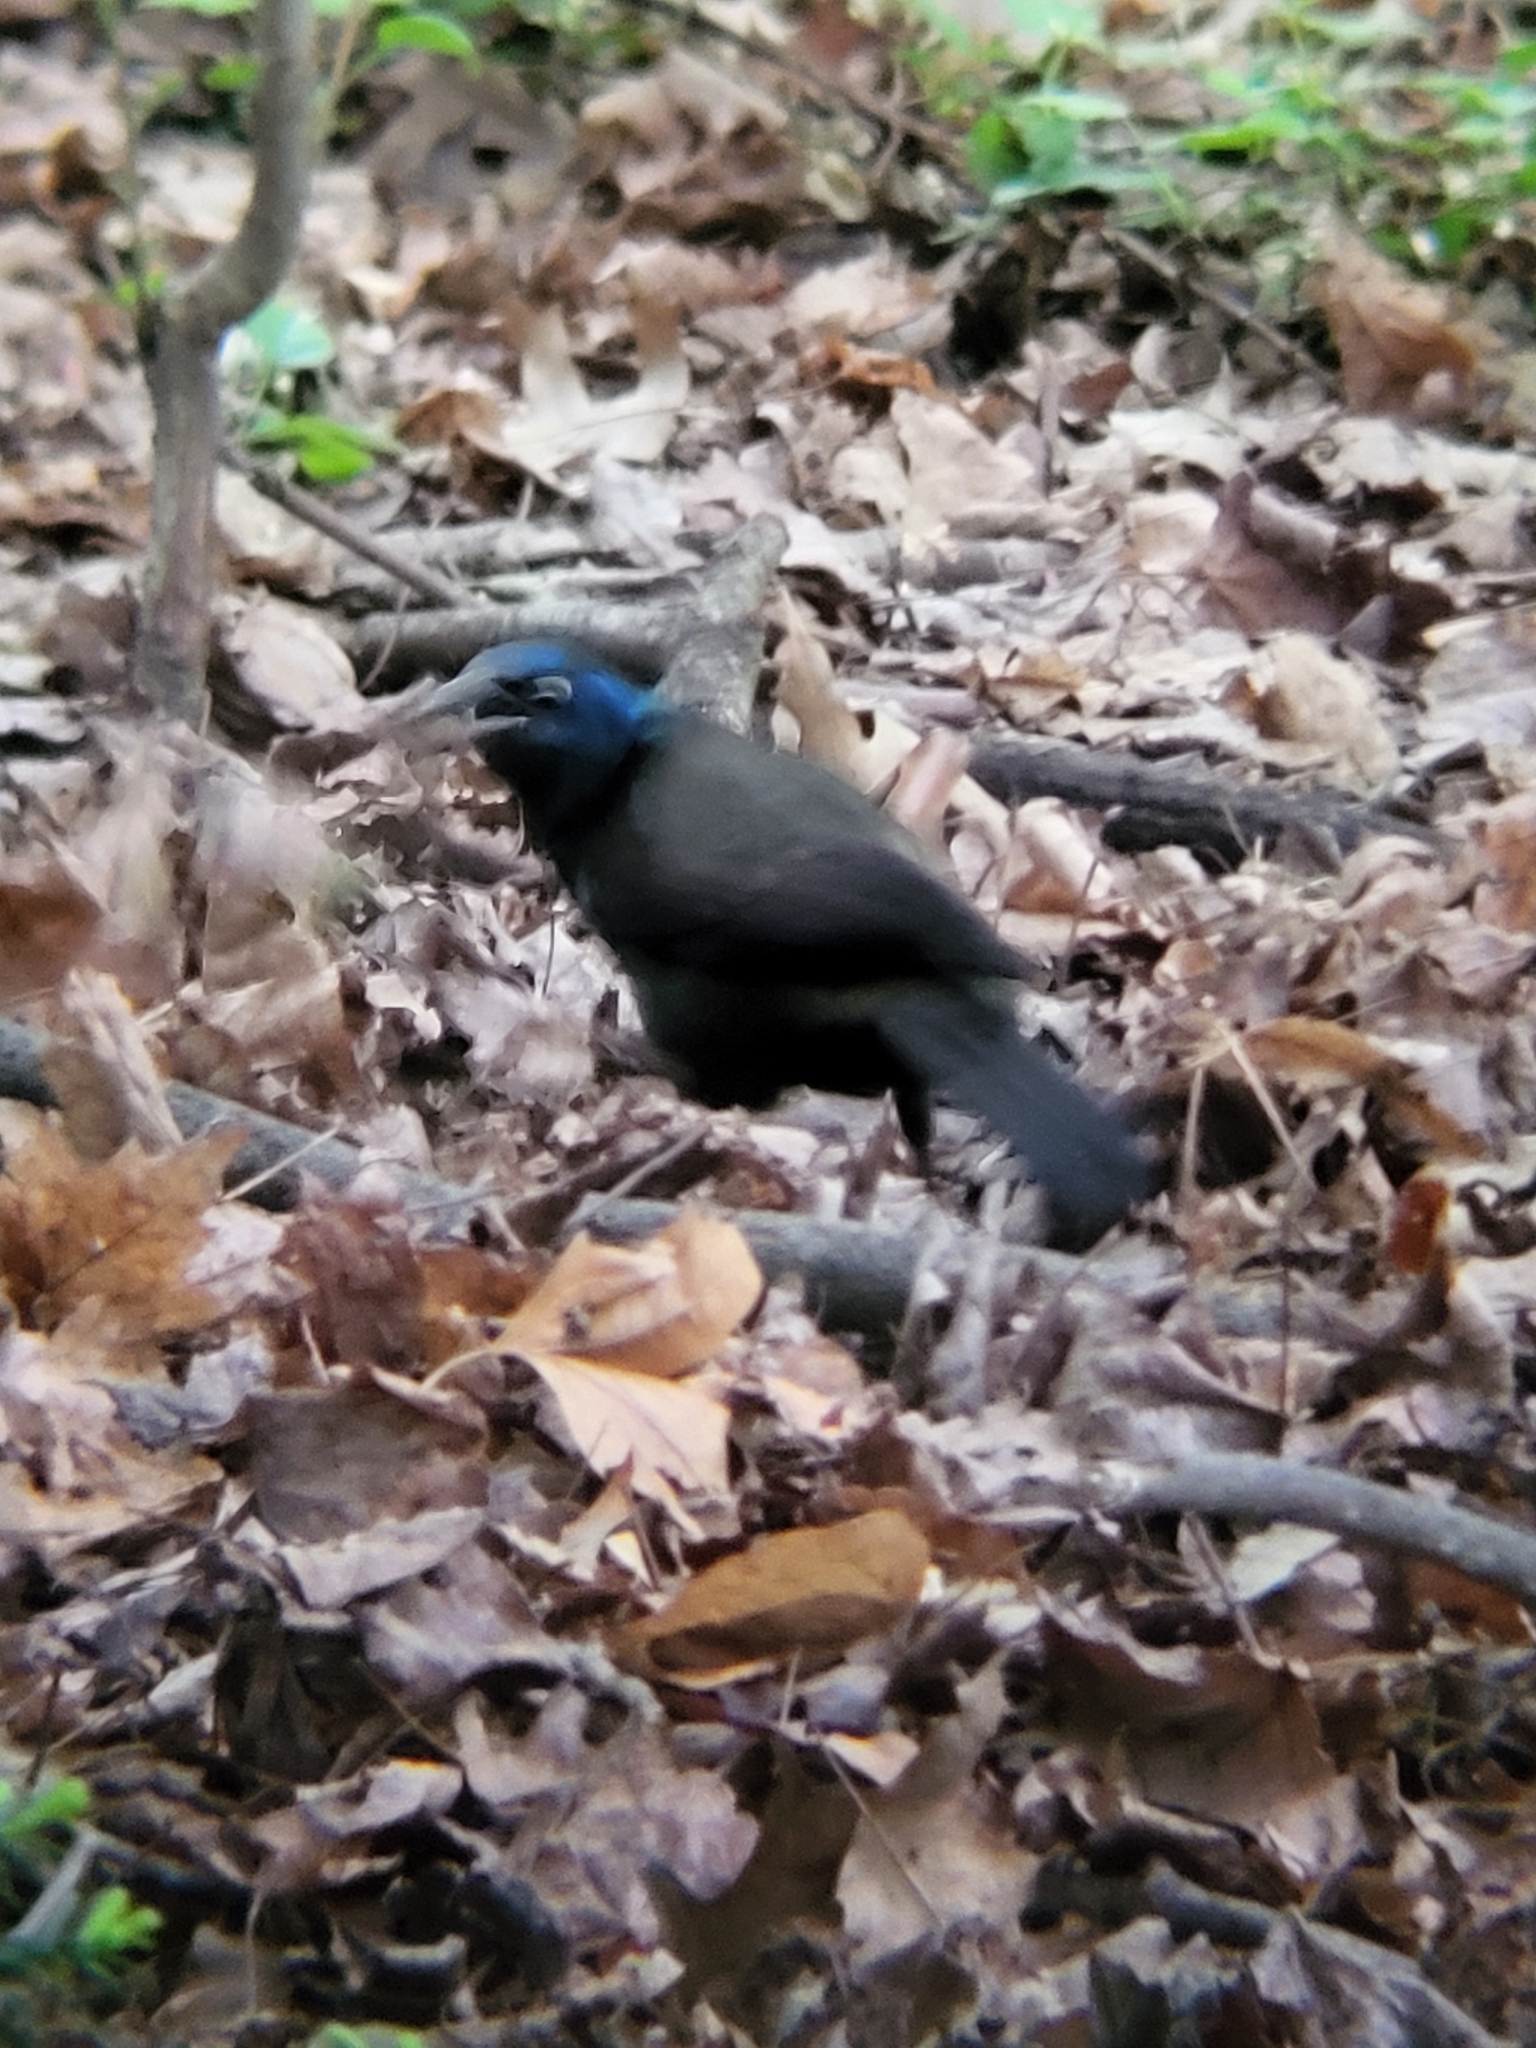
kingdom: Animalia
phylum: Chordata
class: Aves
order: Passeriformes
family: Icteridae
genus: Quiscalus
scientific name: Quiscalus quiscula
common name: Common grackle
